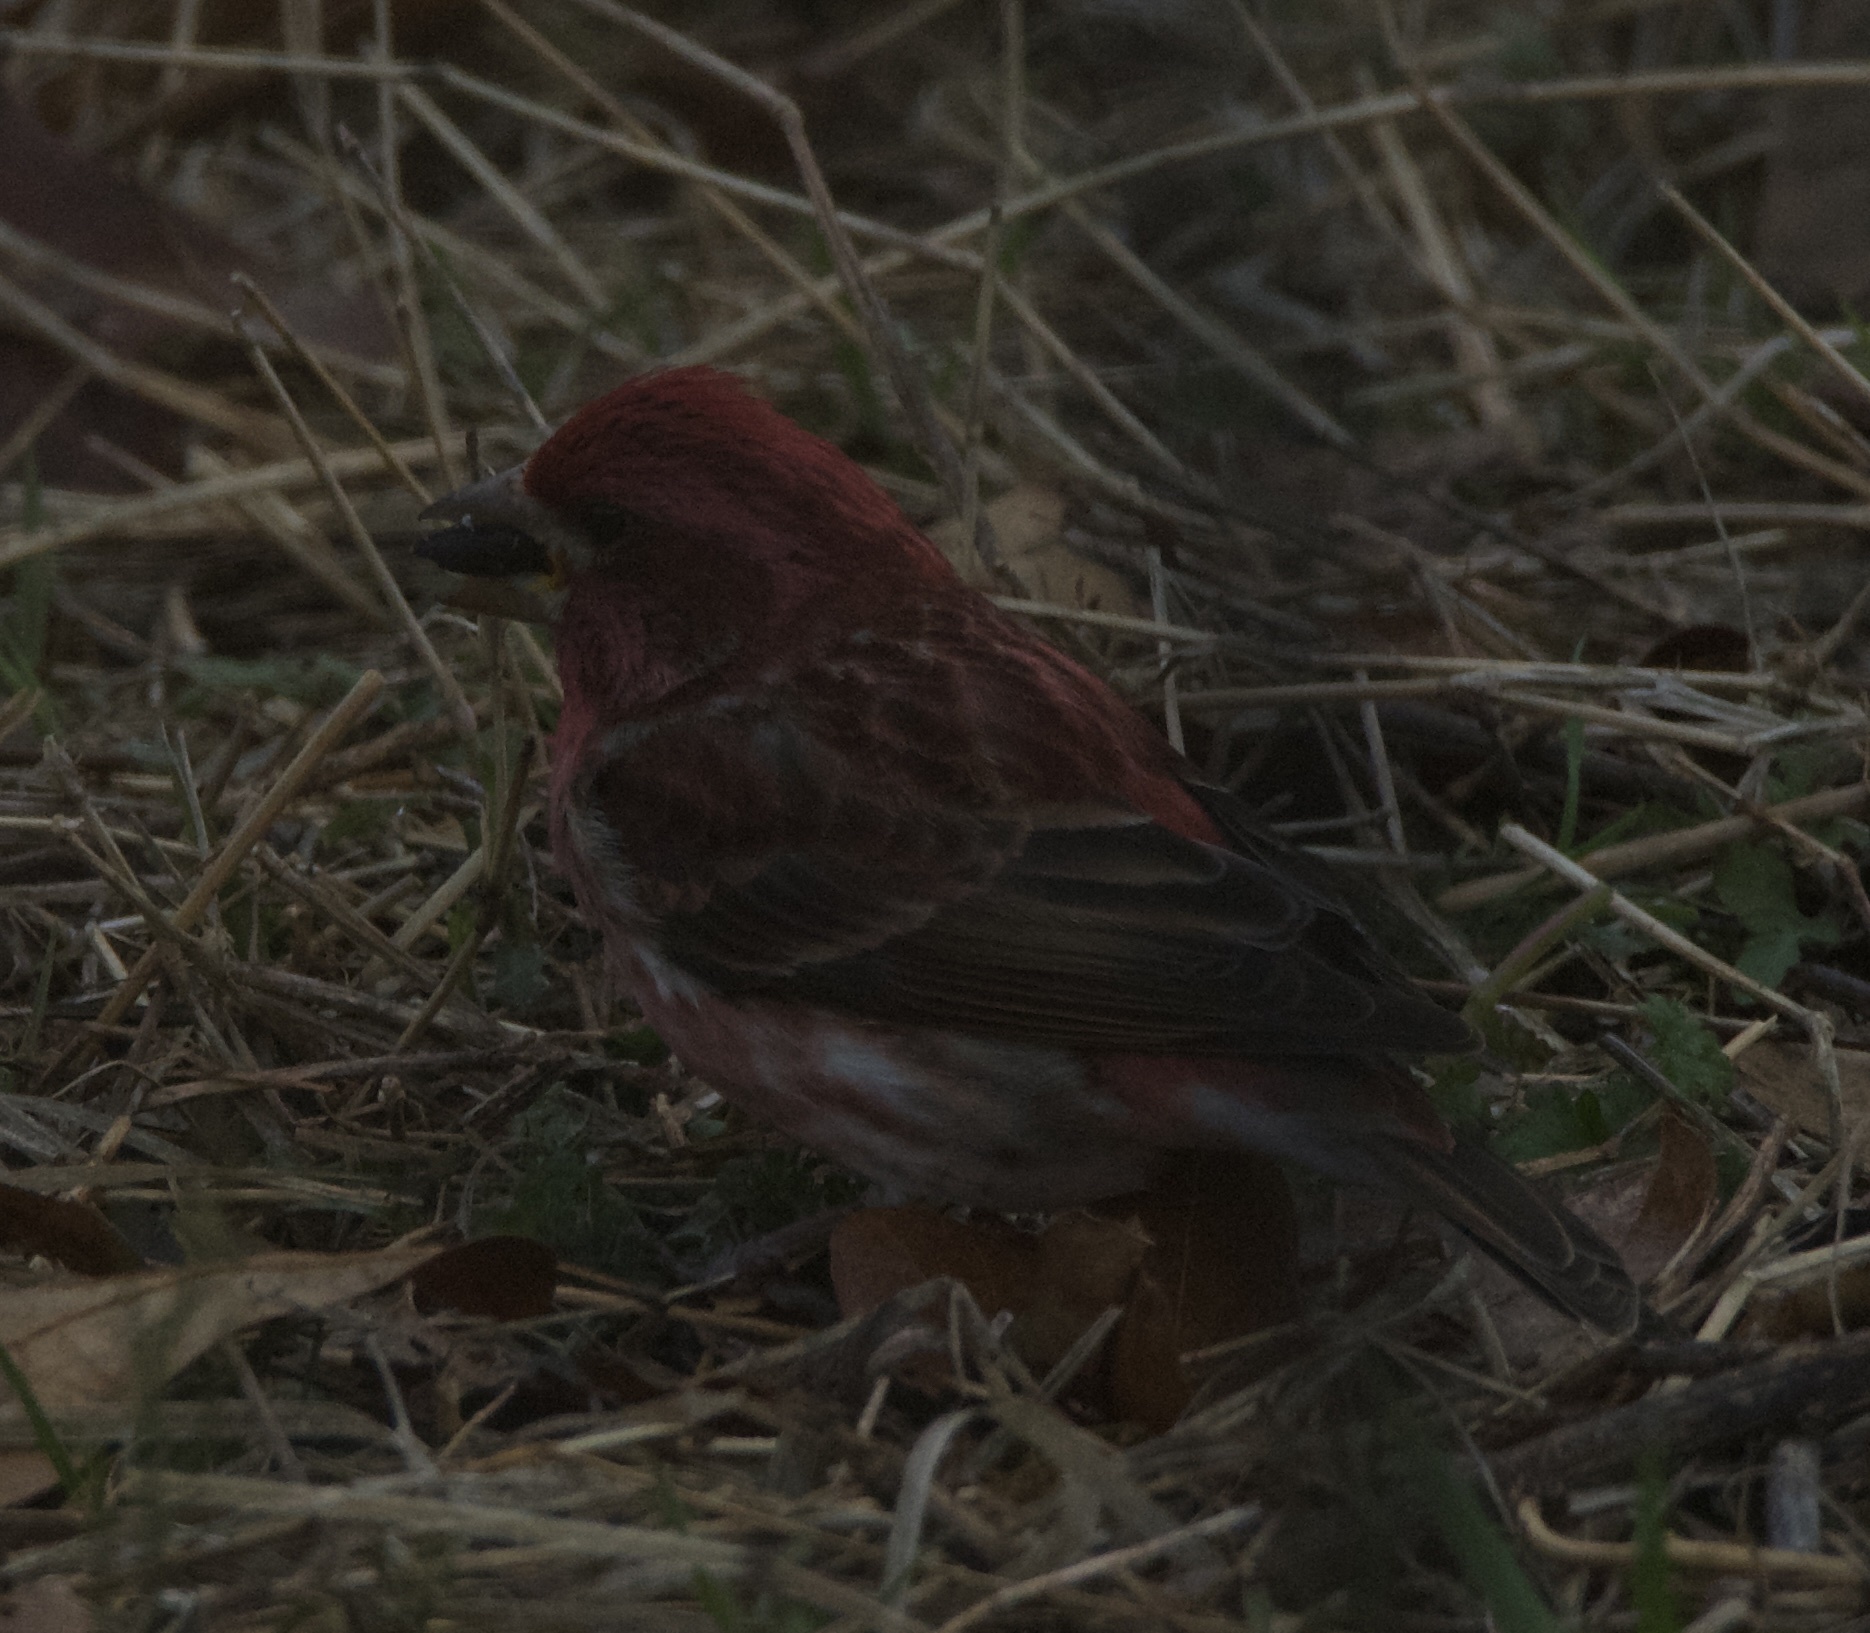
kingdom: Animalia
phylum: Chordata
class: Aves
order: Passeriformes
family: Fringillidae
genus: Haemorhous
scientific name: Haemorhous purpureus
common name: Purple finch
